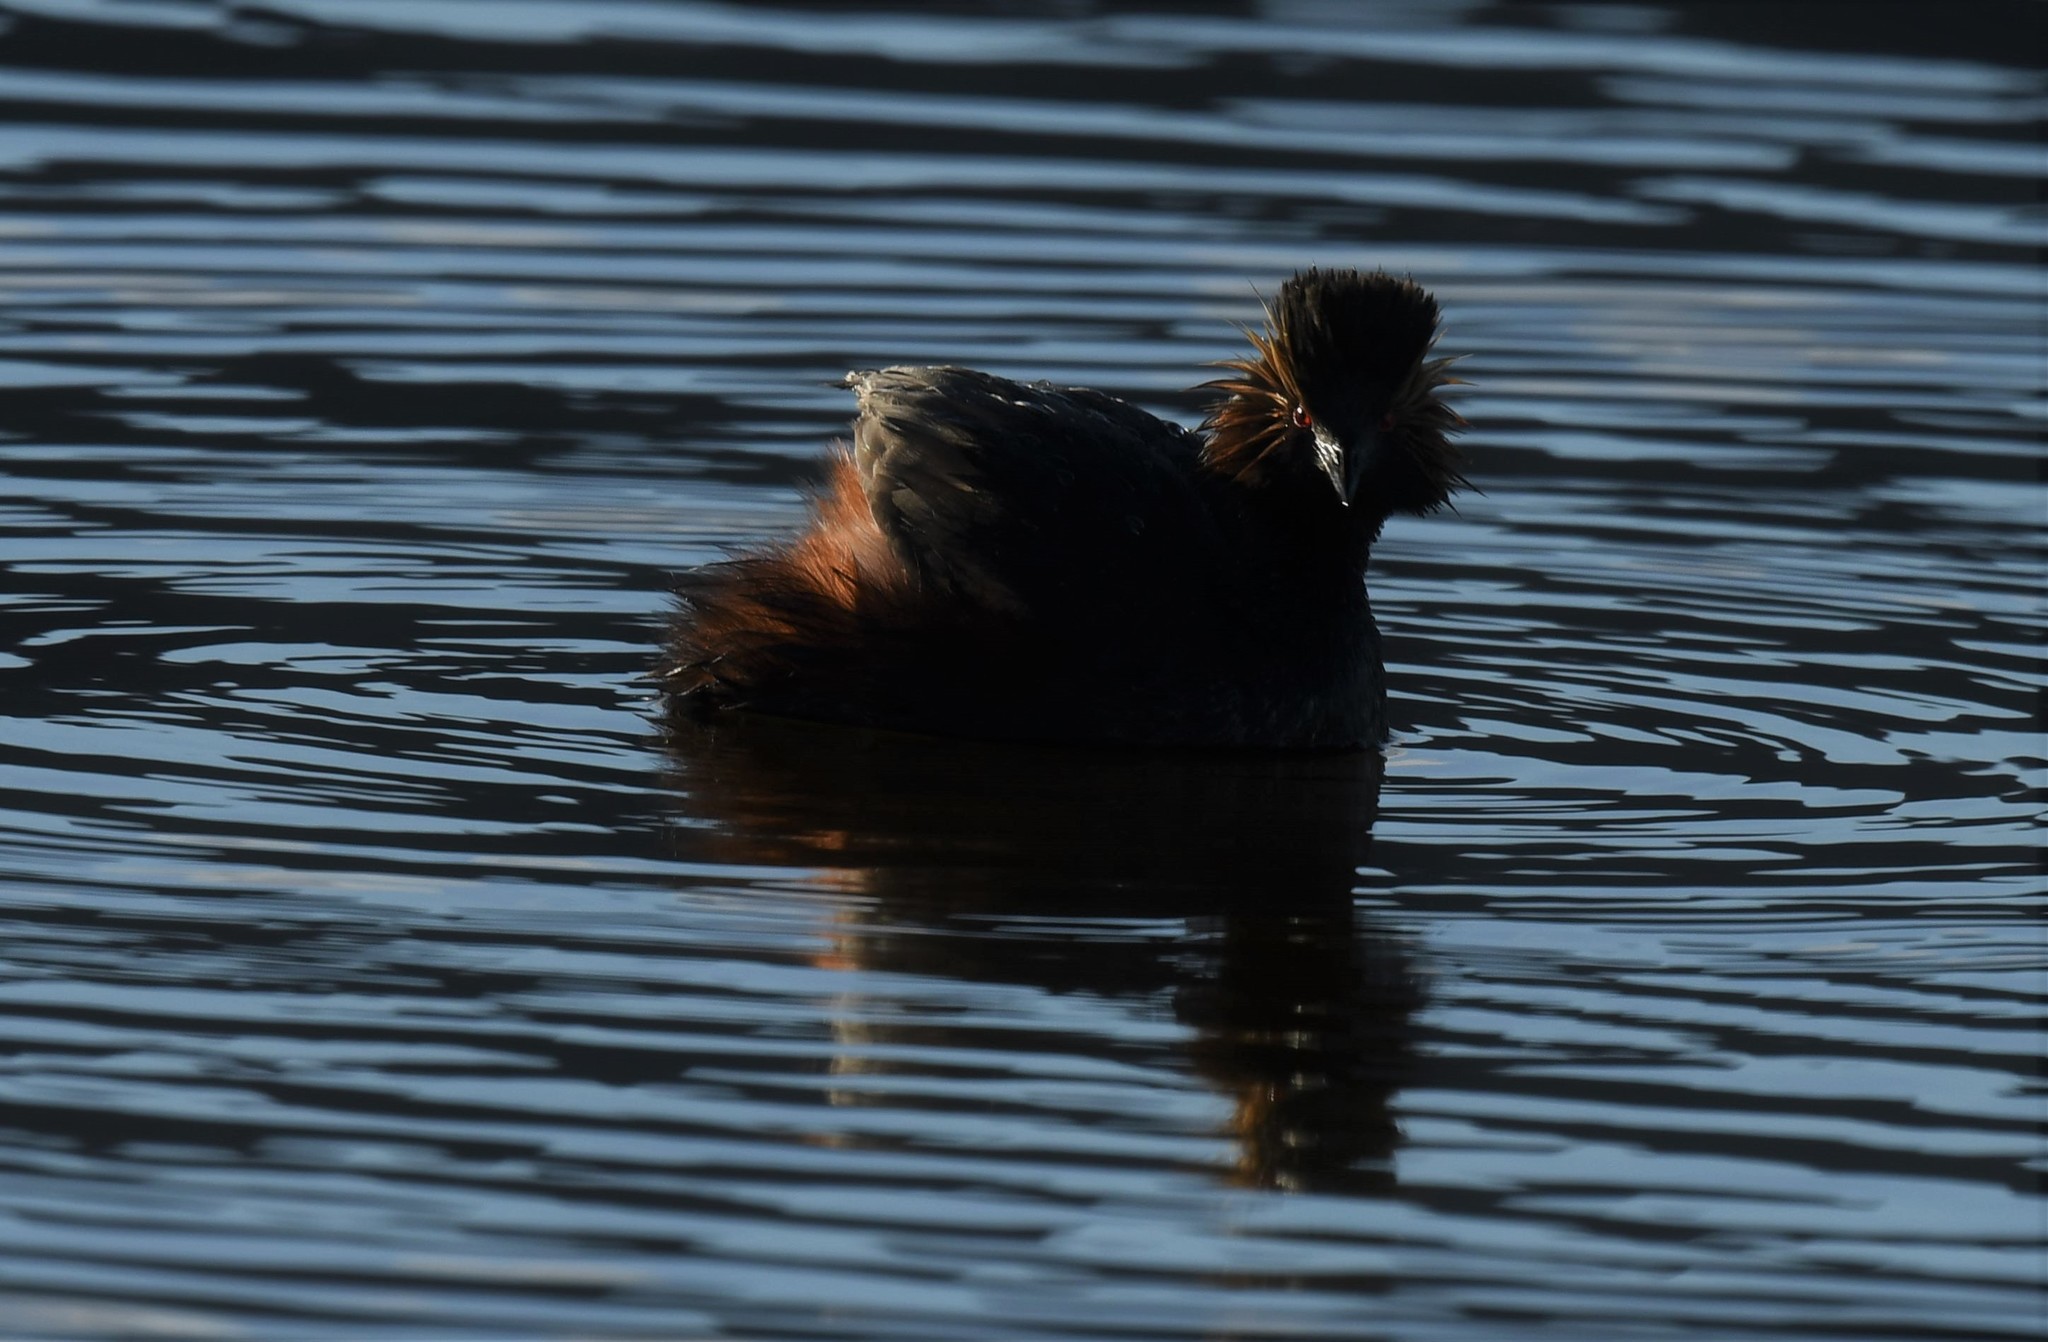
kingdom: Animalia
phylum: Chordata
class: Aves
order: Podicipediformes
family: Podicipedidae
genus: Podiceps
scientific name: Podiceps nigricollis
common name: Black-necked grebe
